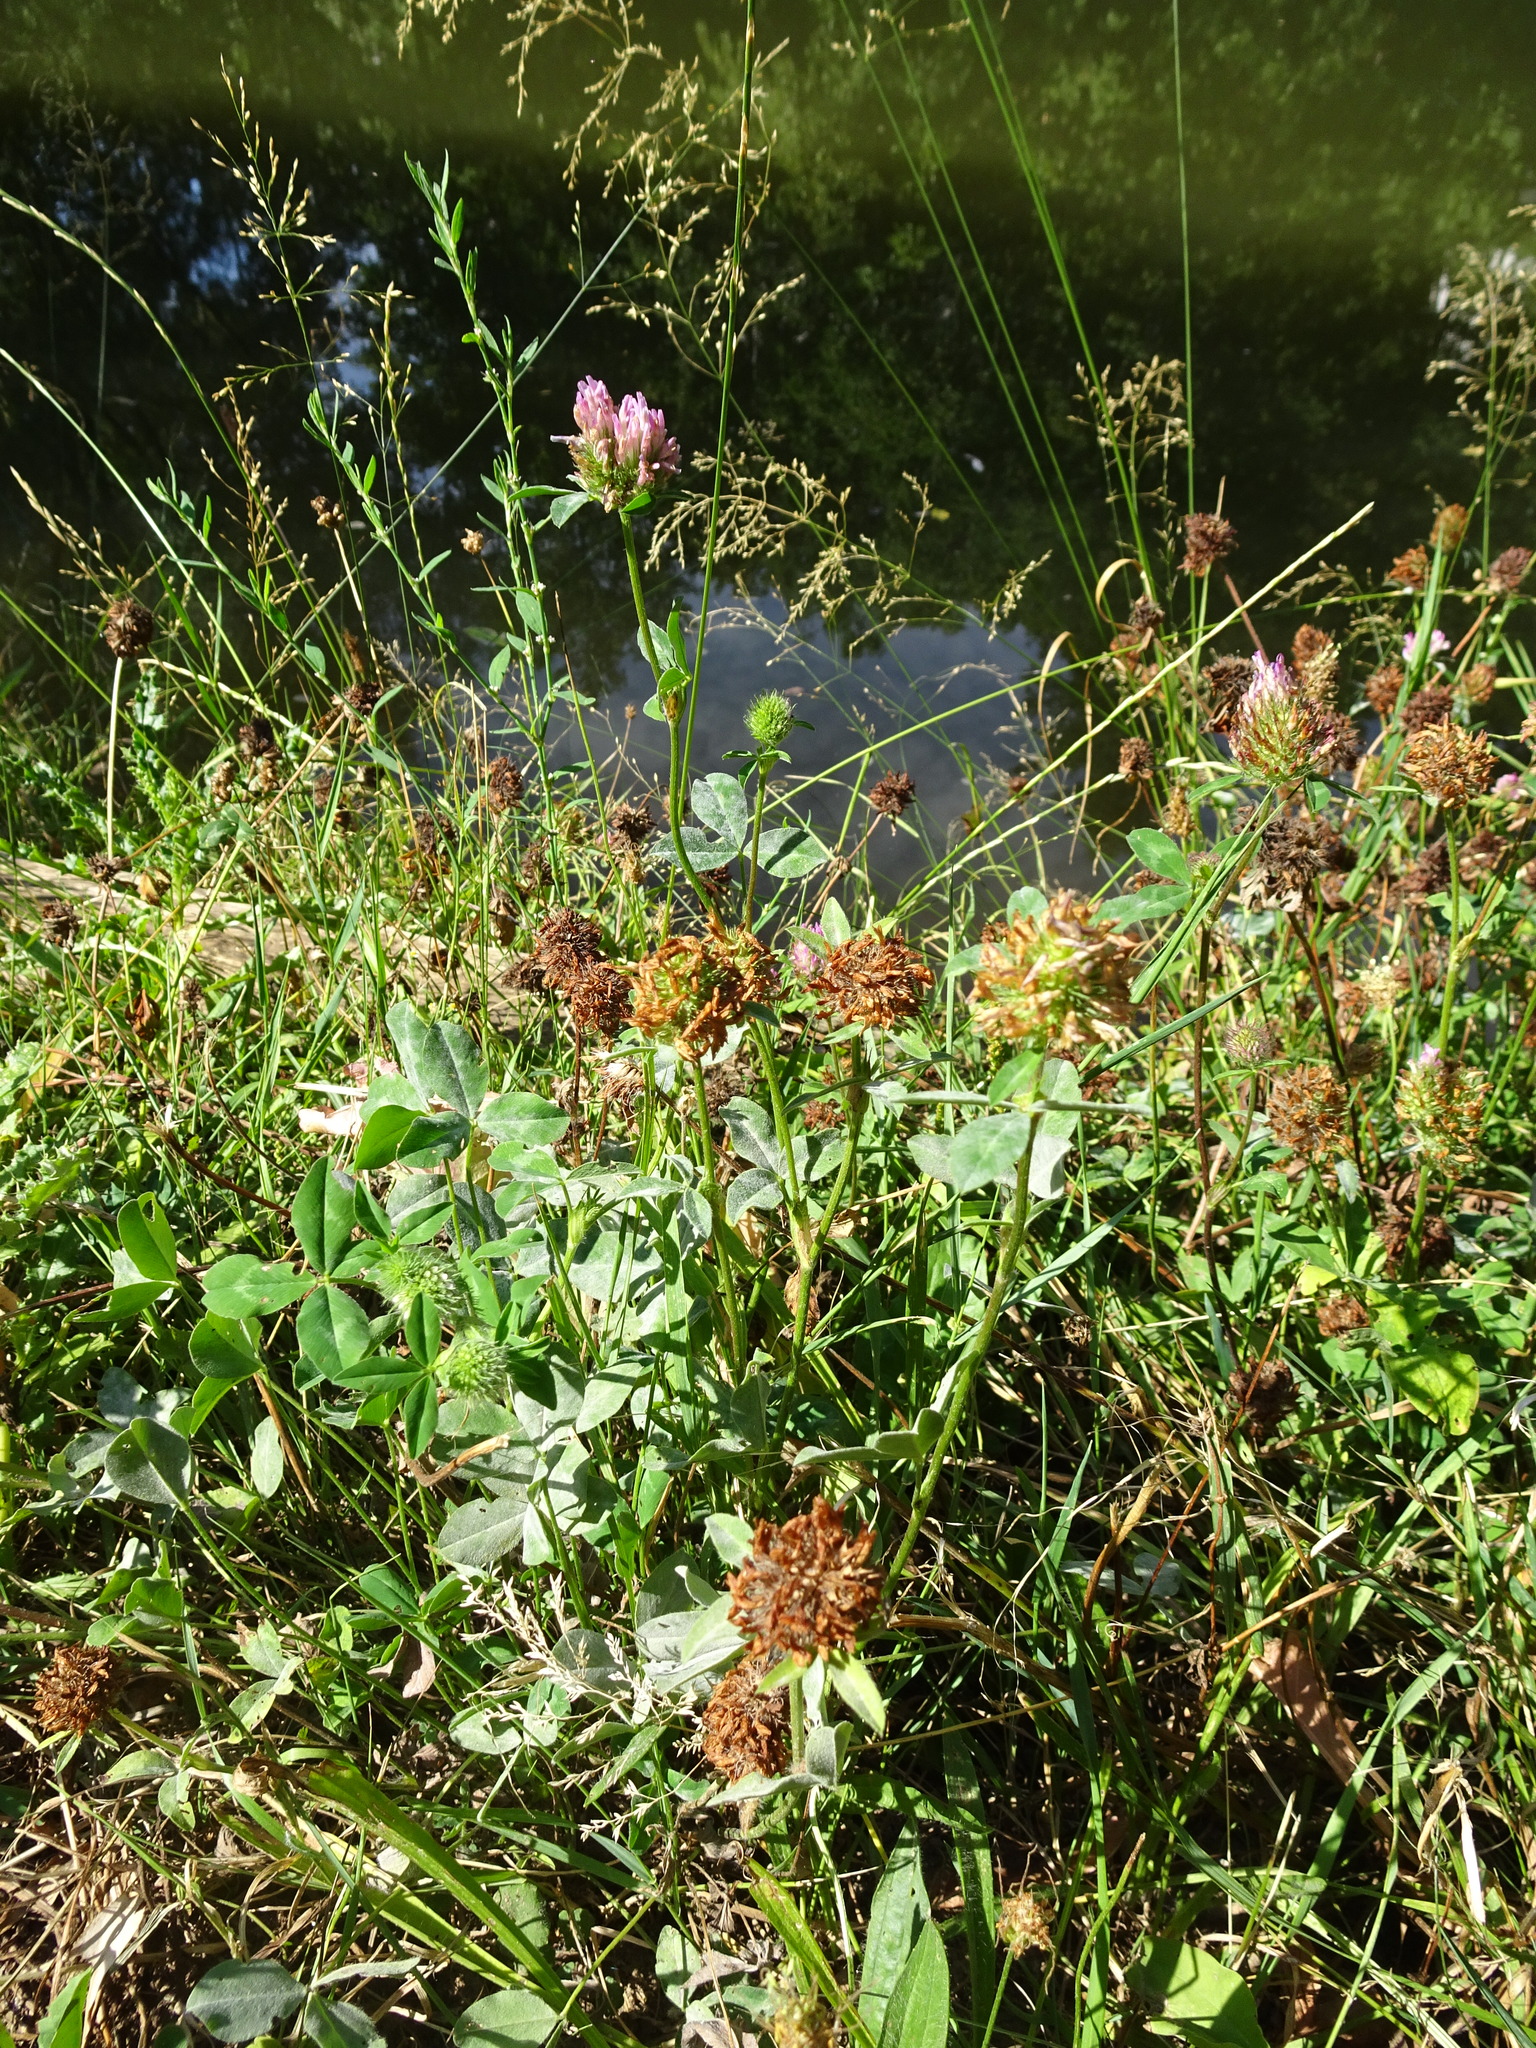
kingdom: Plantae
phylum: Tracheophyta
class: Magnoliopsida
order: Fabales
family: Fabaceae
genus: Trifolium
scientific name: Trifolium pratense
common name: Red clover
